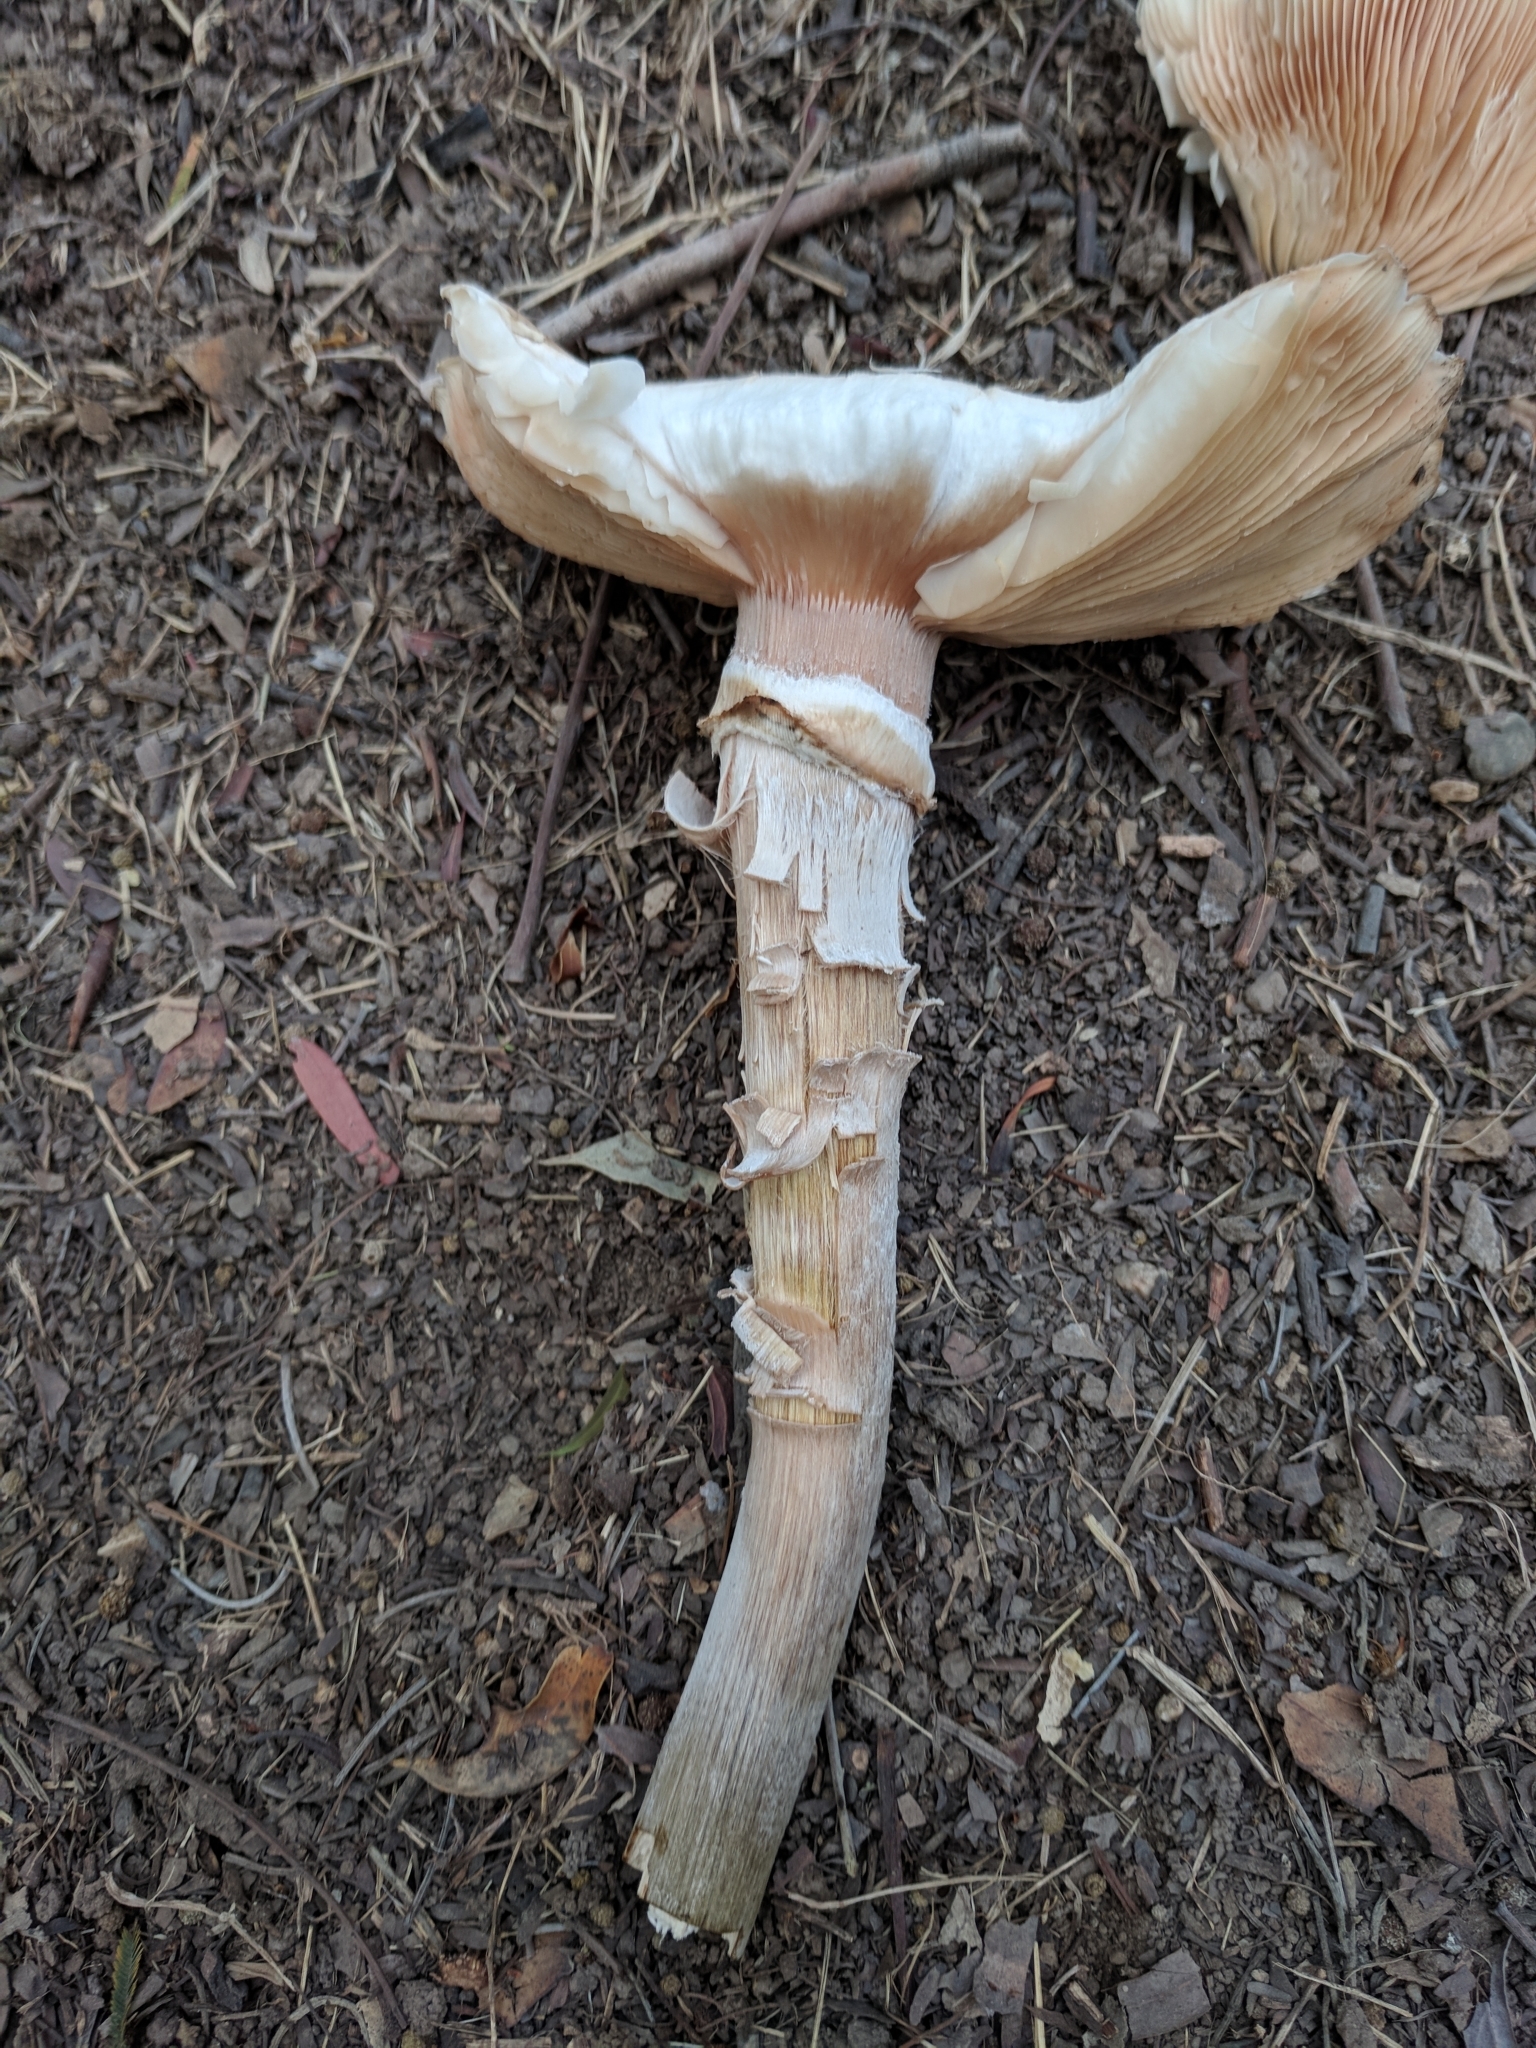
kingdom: Fungi
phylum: Basidiomycota
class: Agaricomycetes
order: Agaricales
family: Physalacriaceae
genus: Armillaria
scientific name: Armillaria mellea
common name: Honey fungus
